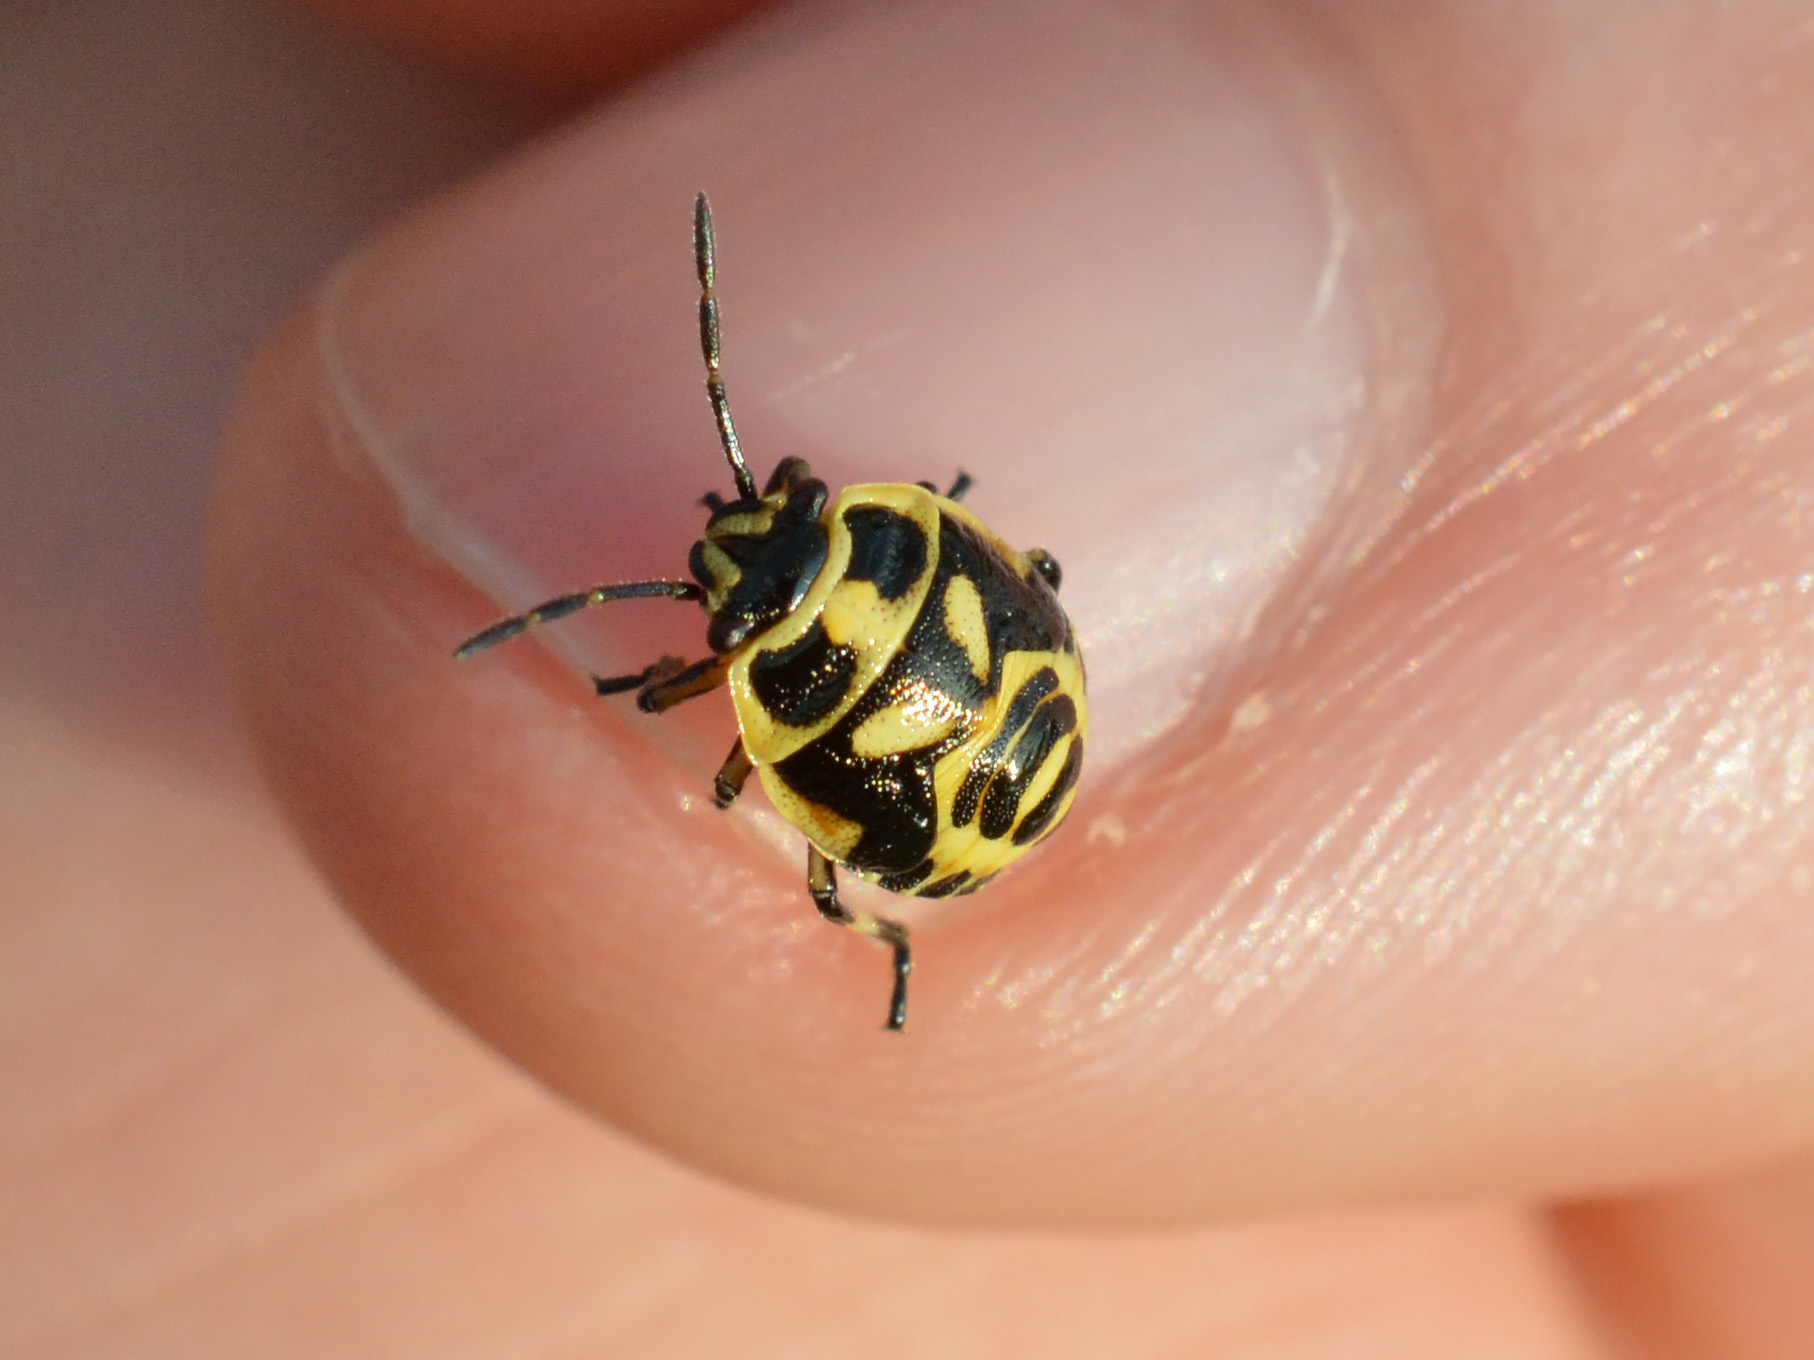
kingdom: Animalia
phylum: Arthropoda
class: Insecta
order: Hemiptera
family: Pentatomidae
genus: Eurydema
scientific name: Eurydema oleracea
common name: Cabbage bug
